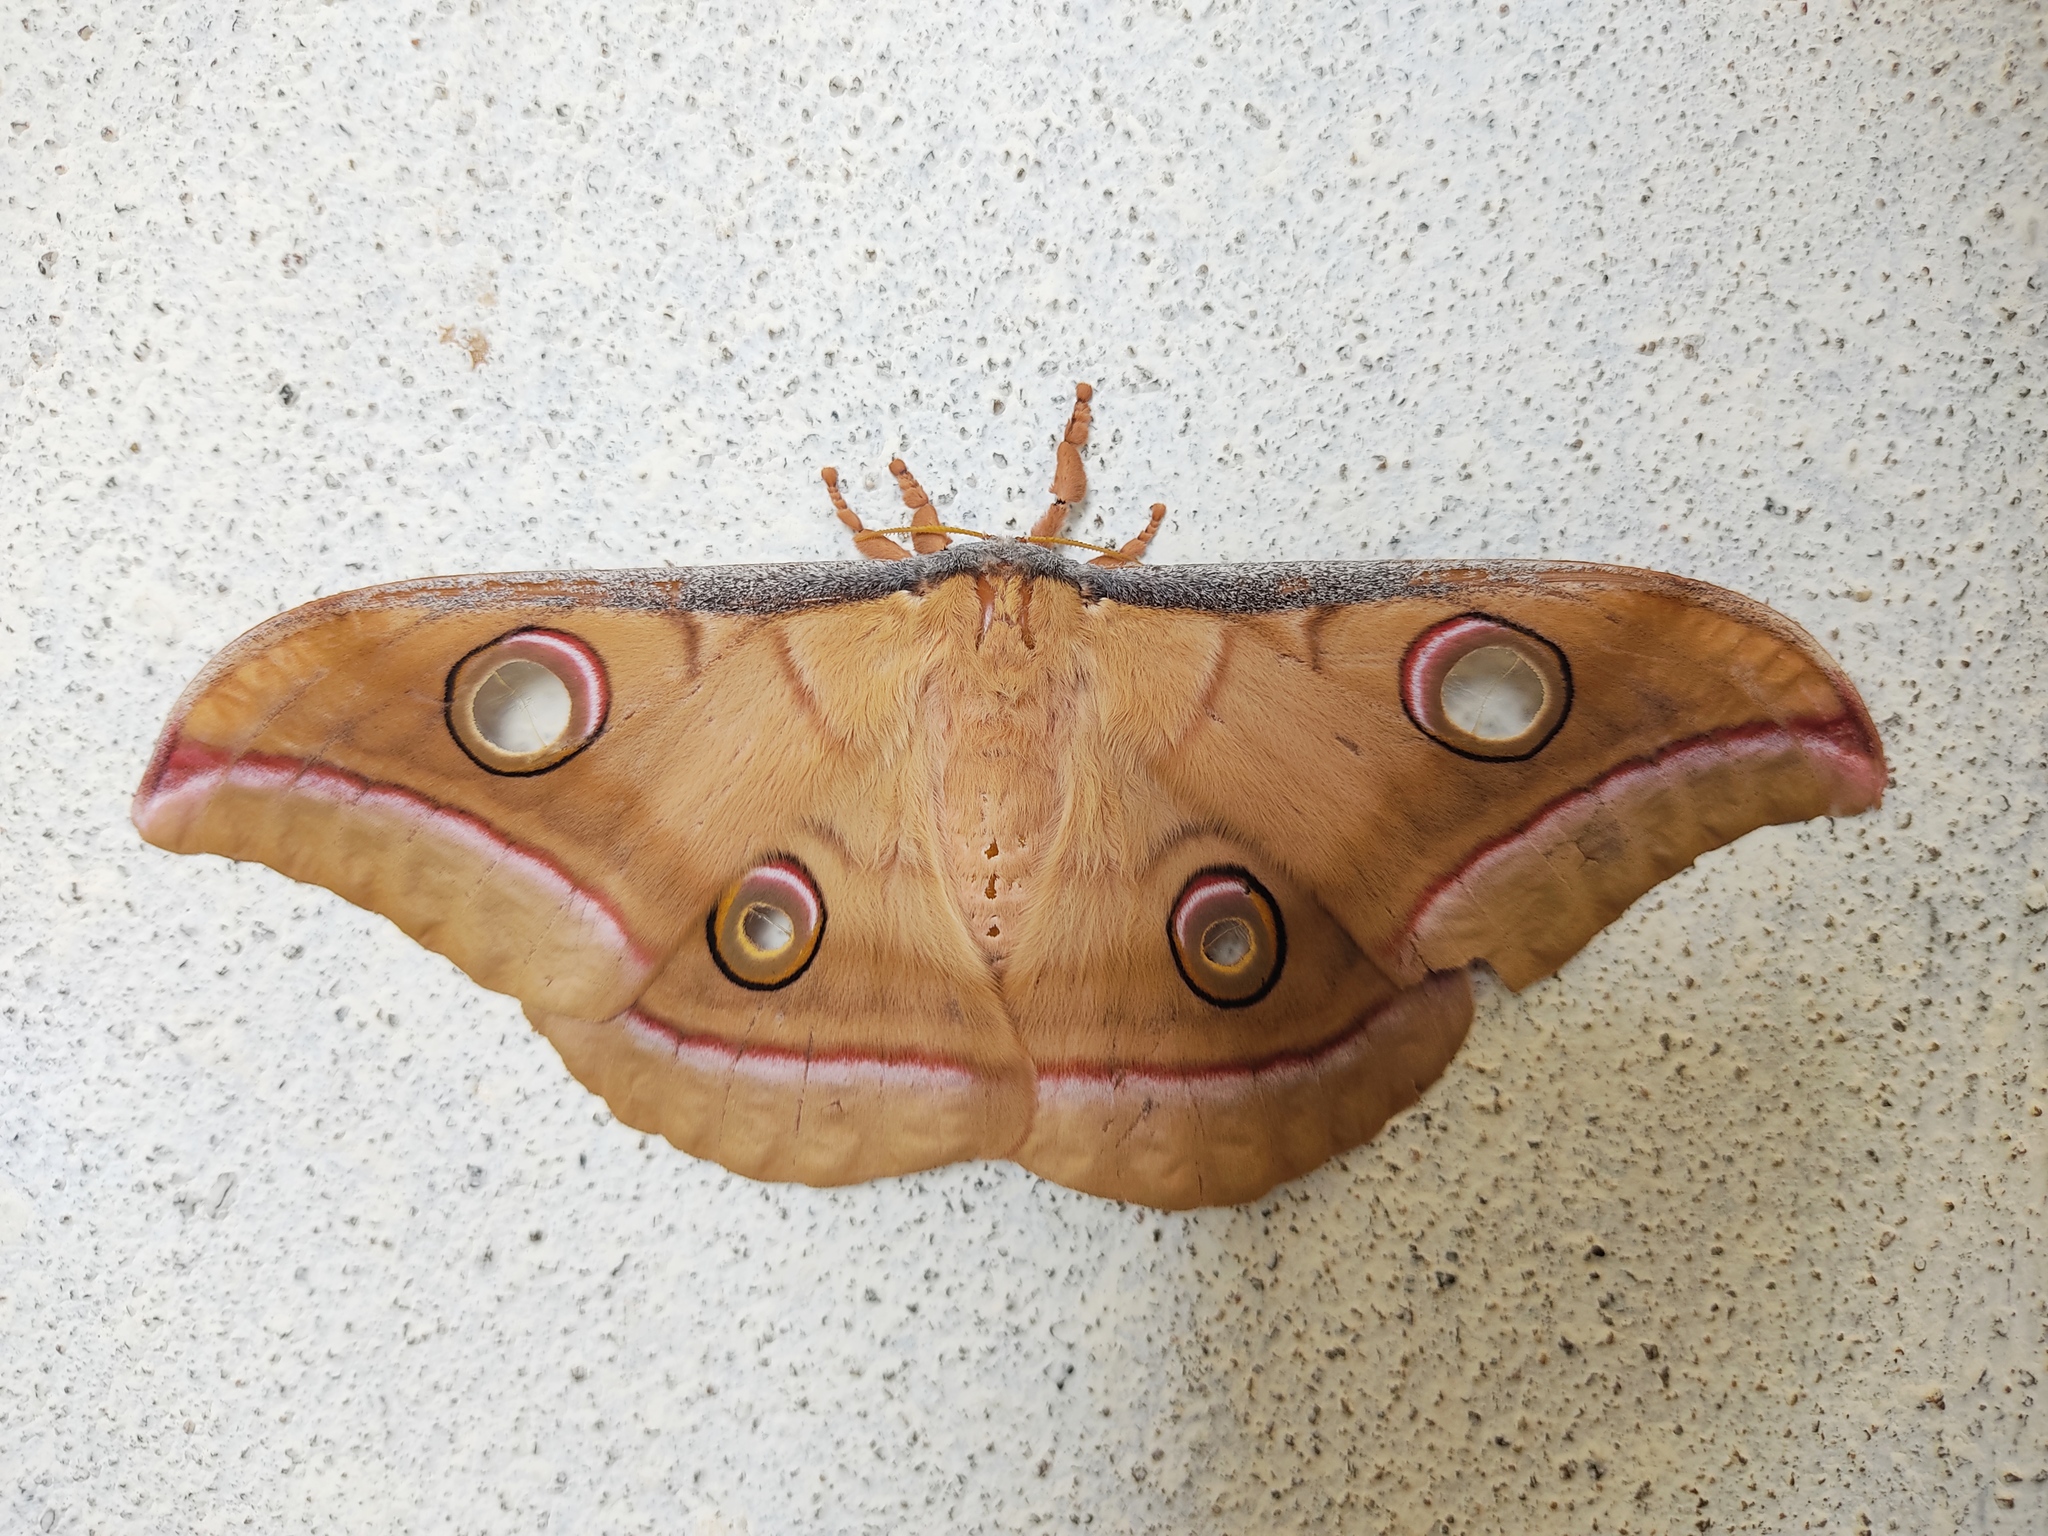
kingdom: Animalia
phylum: Arthropoda
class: Insecta
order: Lepidoptera
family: Saturniidae
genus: Antheraea
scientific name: Antheraea paphia
